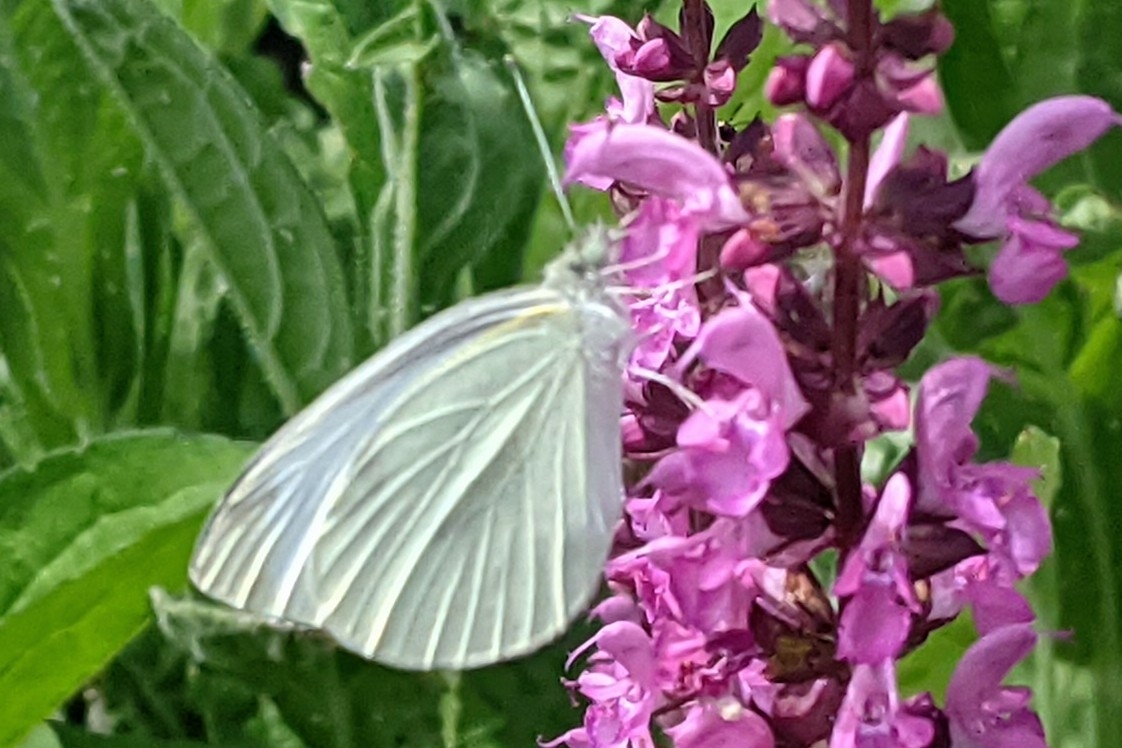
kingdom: Animalia
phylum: Arthropoda
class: Insecta
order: Lepidoptera
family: Pieridae
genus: Pieris
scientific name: Pieris rapae
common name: Small white
